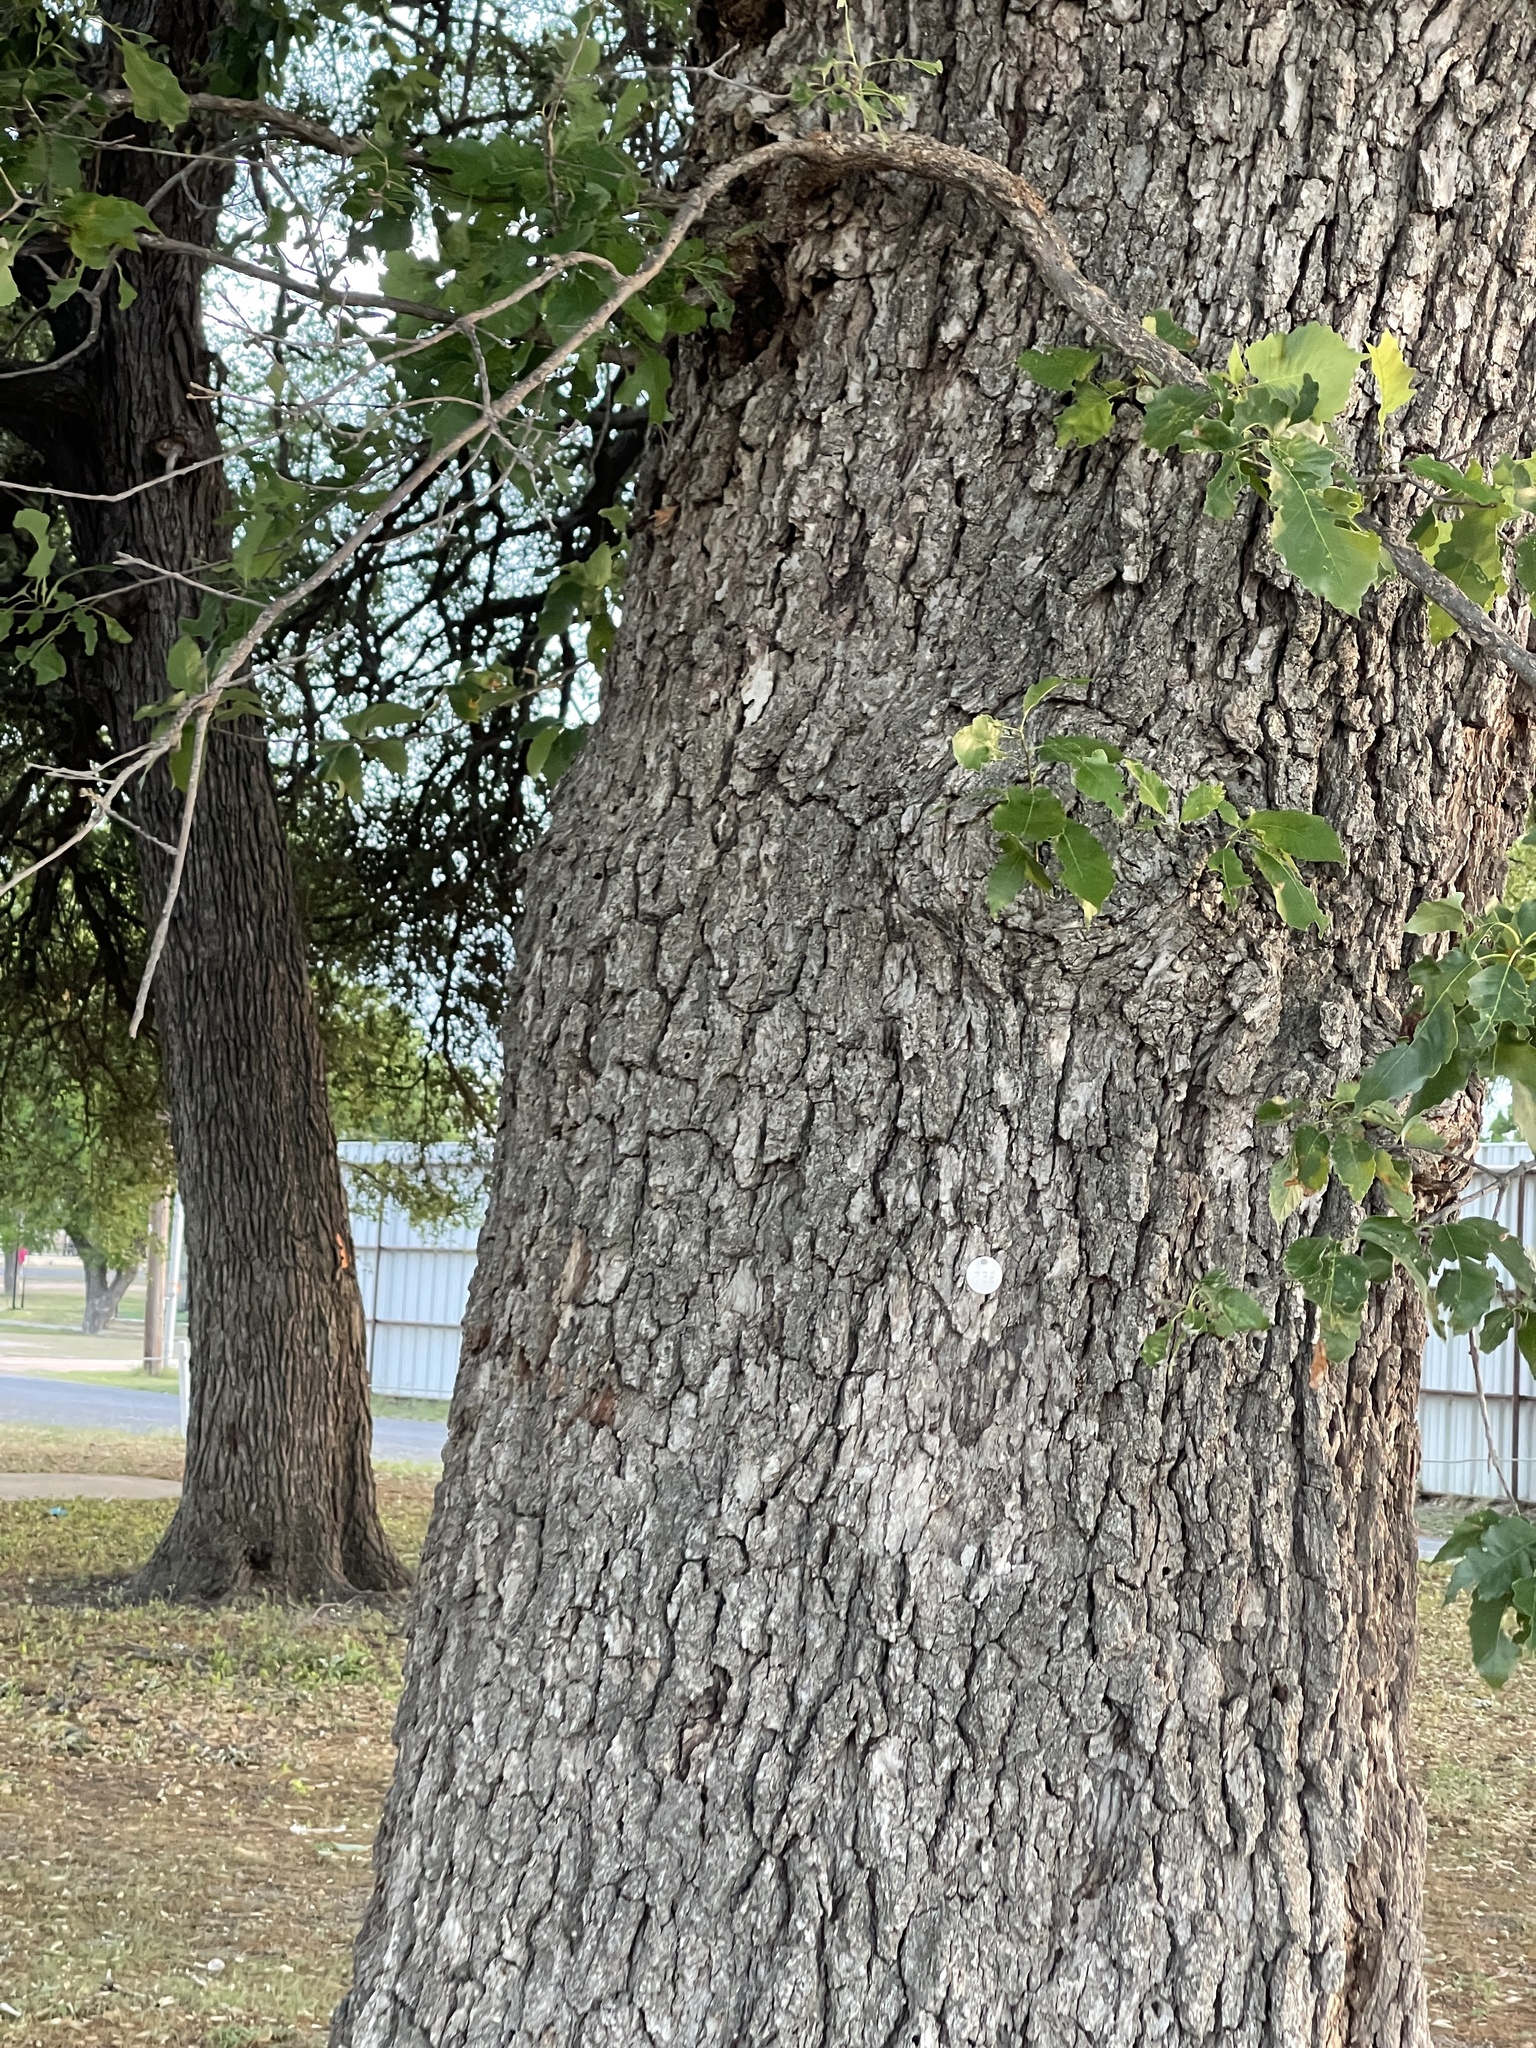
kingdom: Plantae
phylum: Tracheophyta
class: Magnoliopsida
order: Fagales
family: Fagaceae
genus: Quercus
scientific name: Quercus muehlenbergii
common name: Chinkapin oak
